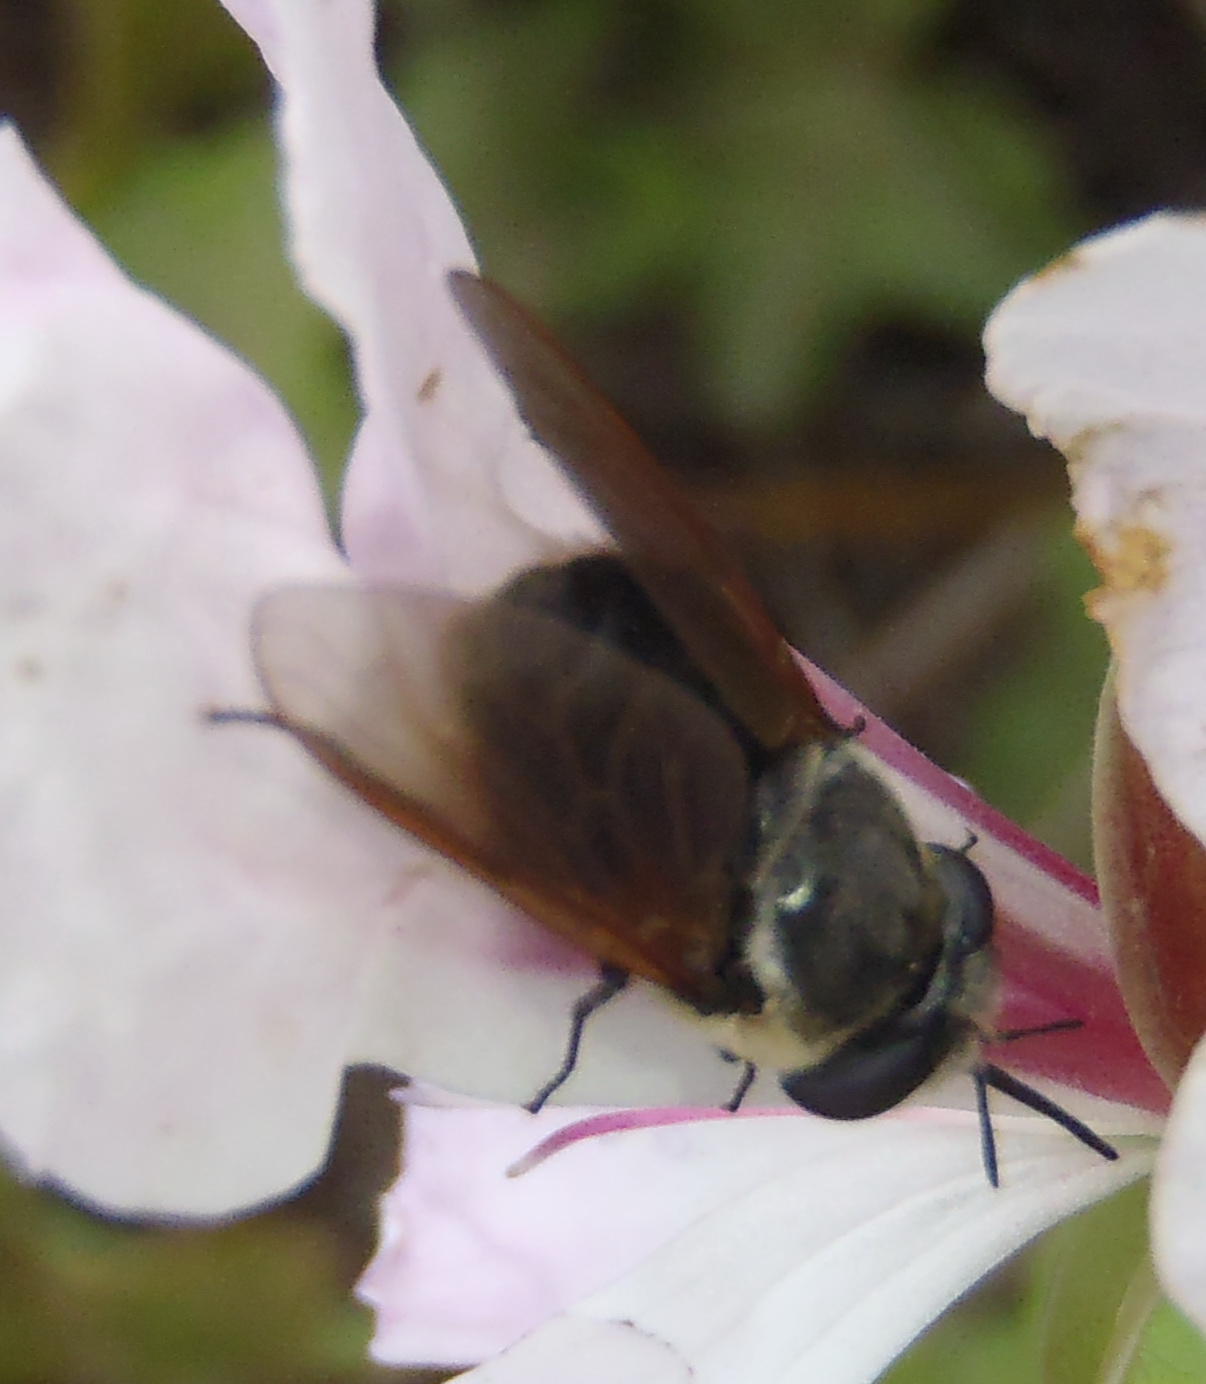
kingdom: Animalia
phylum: Arthropoda
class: Insecta
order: Diptera
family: Bombyliidae
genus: Corsomyza
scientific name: Corsomyza brevicornis
